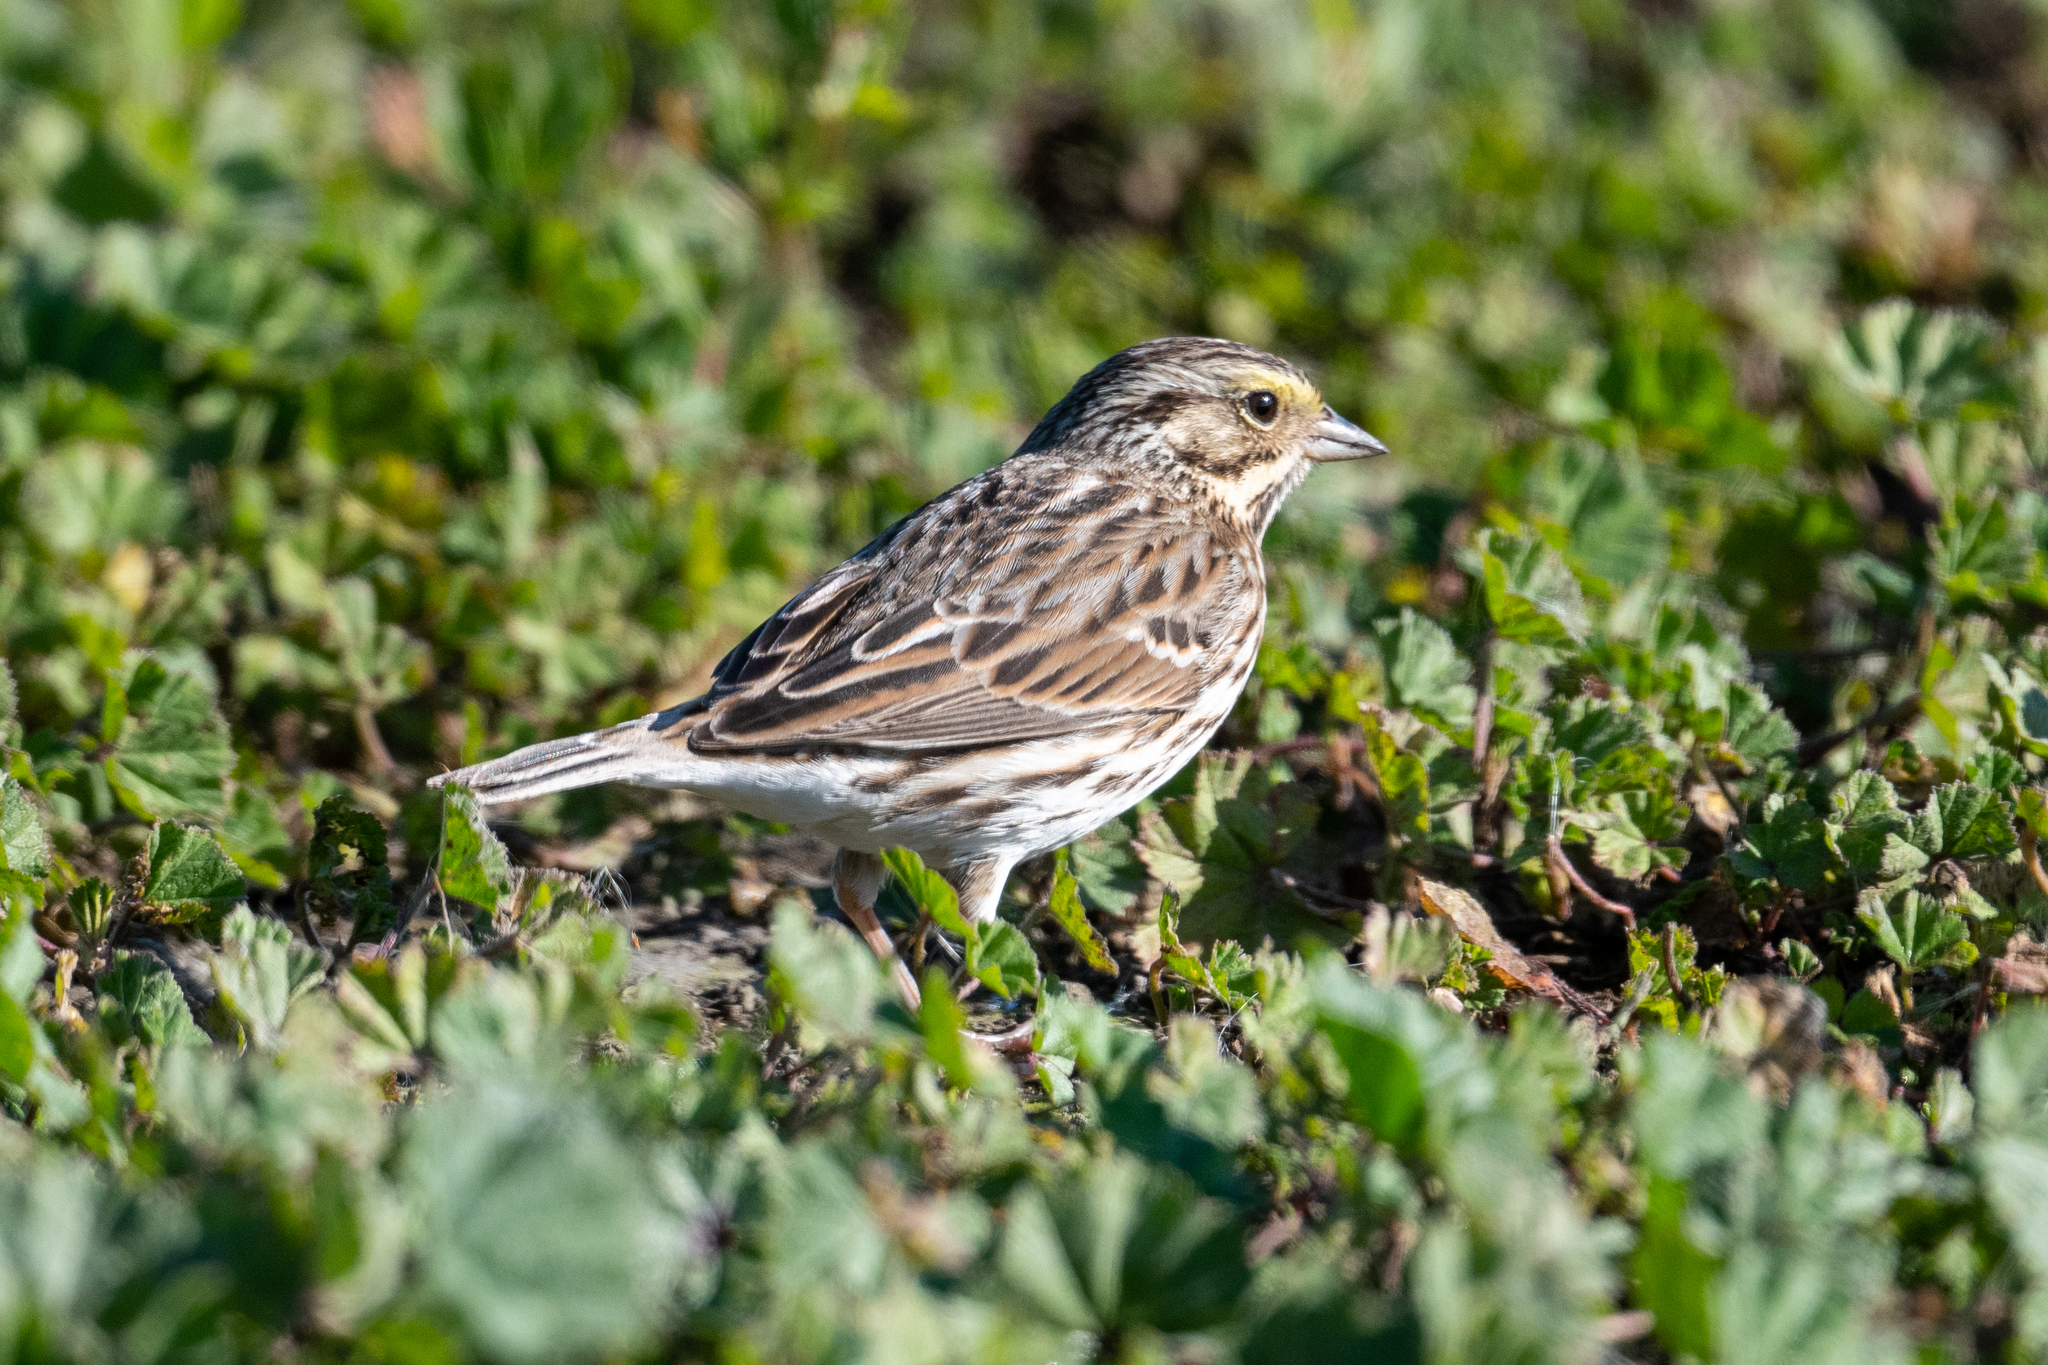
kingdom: Animalia
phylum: Chordata
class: Aves
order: Passeriformes
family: Passerellidae
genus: Passerculus
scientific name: Passerculus sandwichensis
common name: Savannah sparrow
